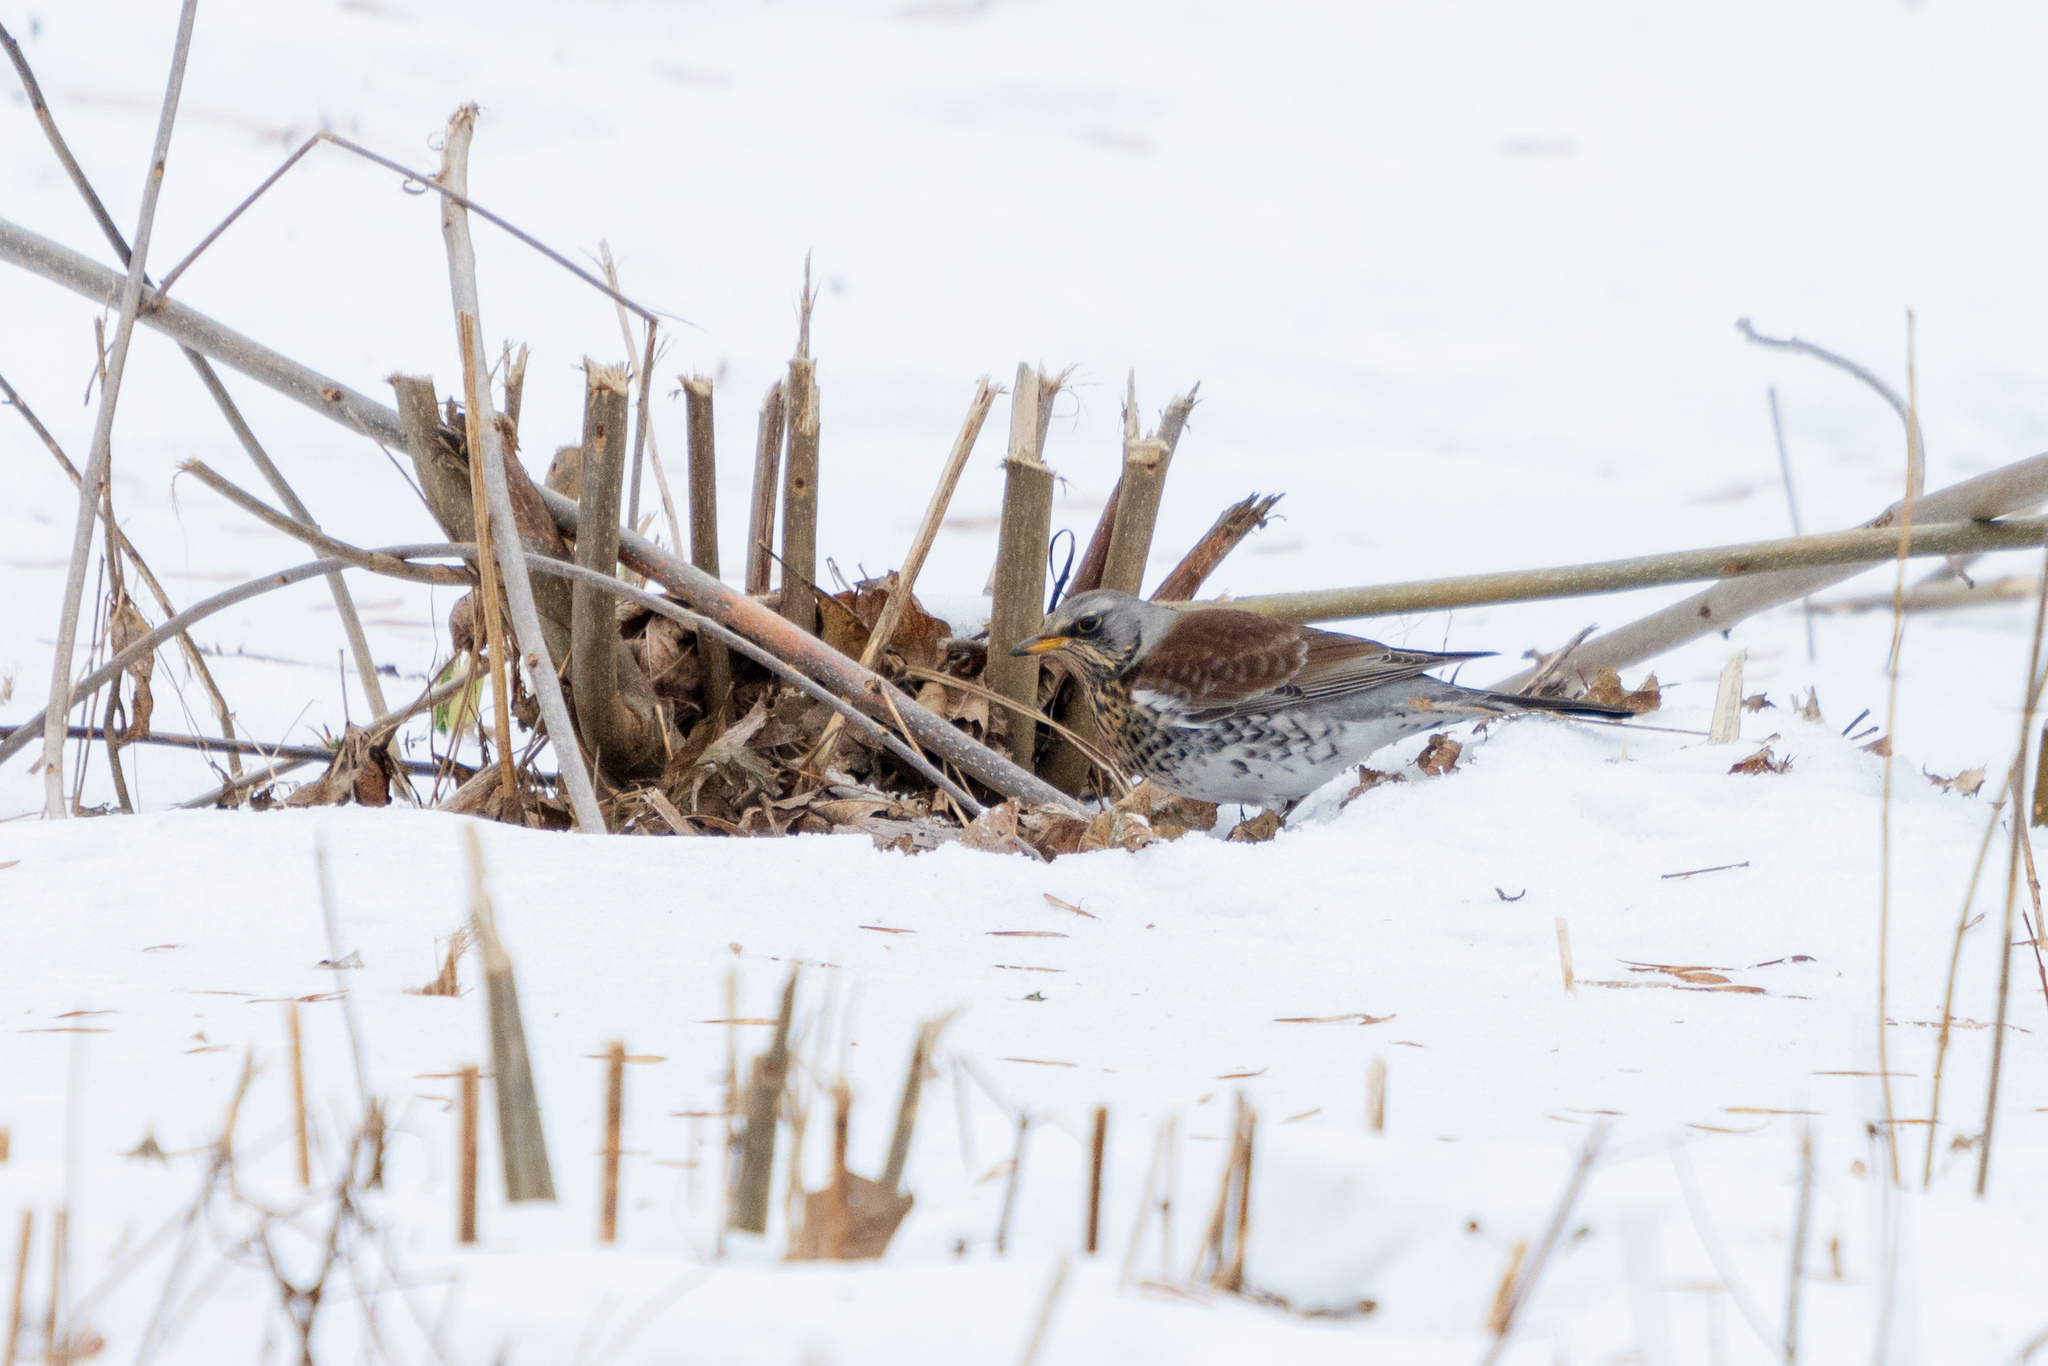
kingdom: Animalia
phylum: Chordata
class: Aves
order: Passeriformes
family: Turdidae
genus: Turdus
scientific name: Turdus pilaris
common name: Fieldfare
